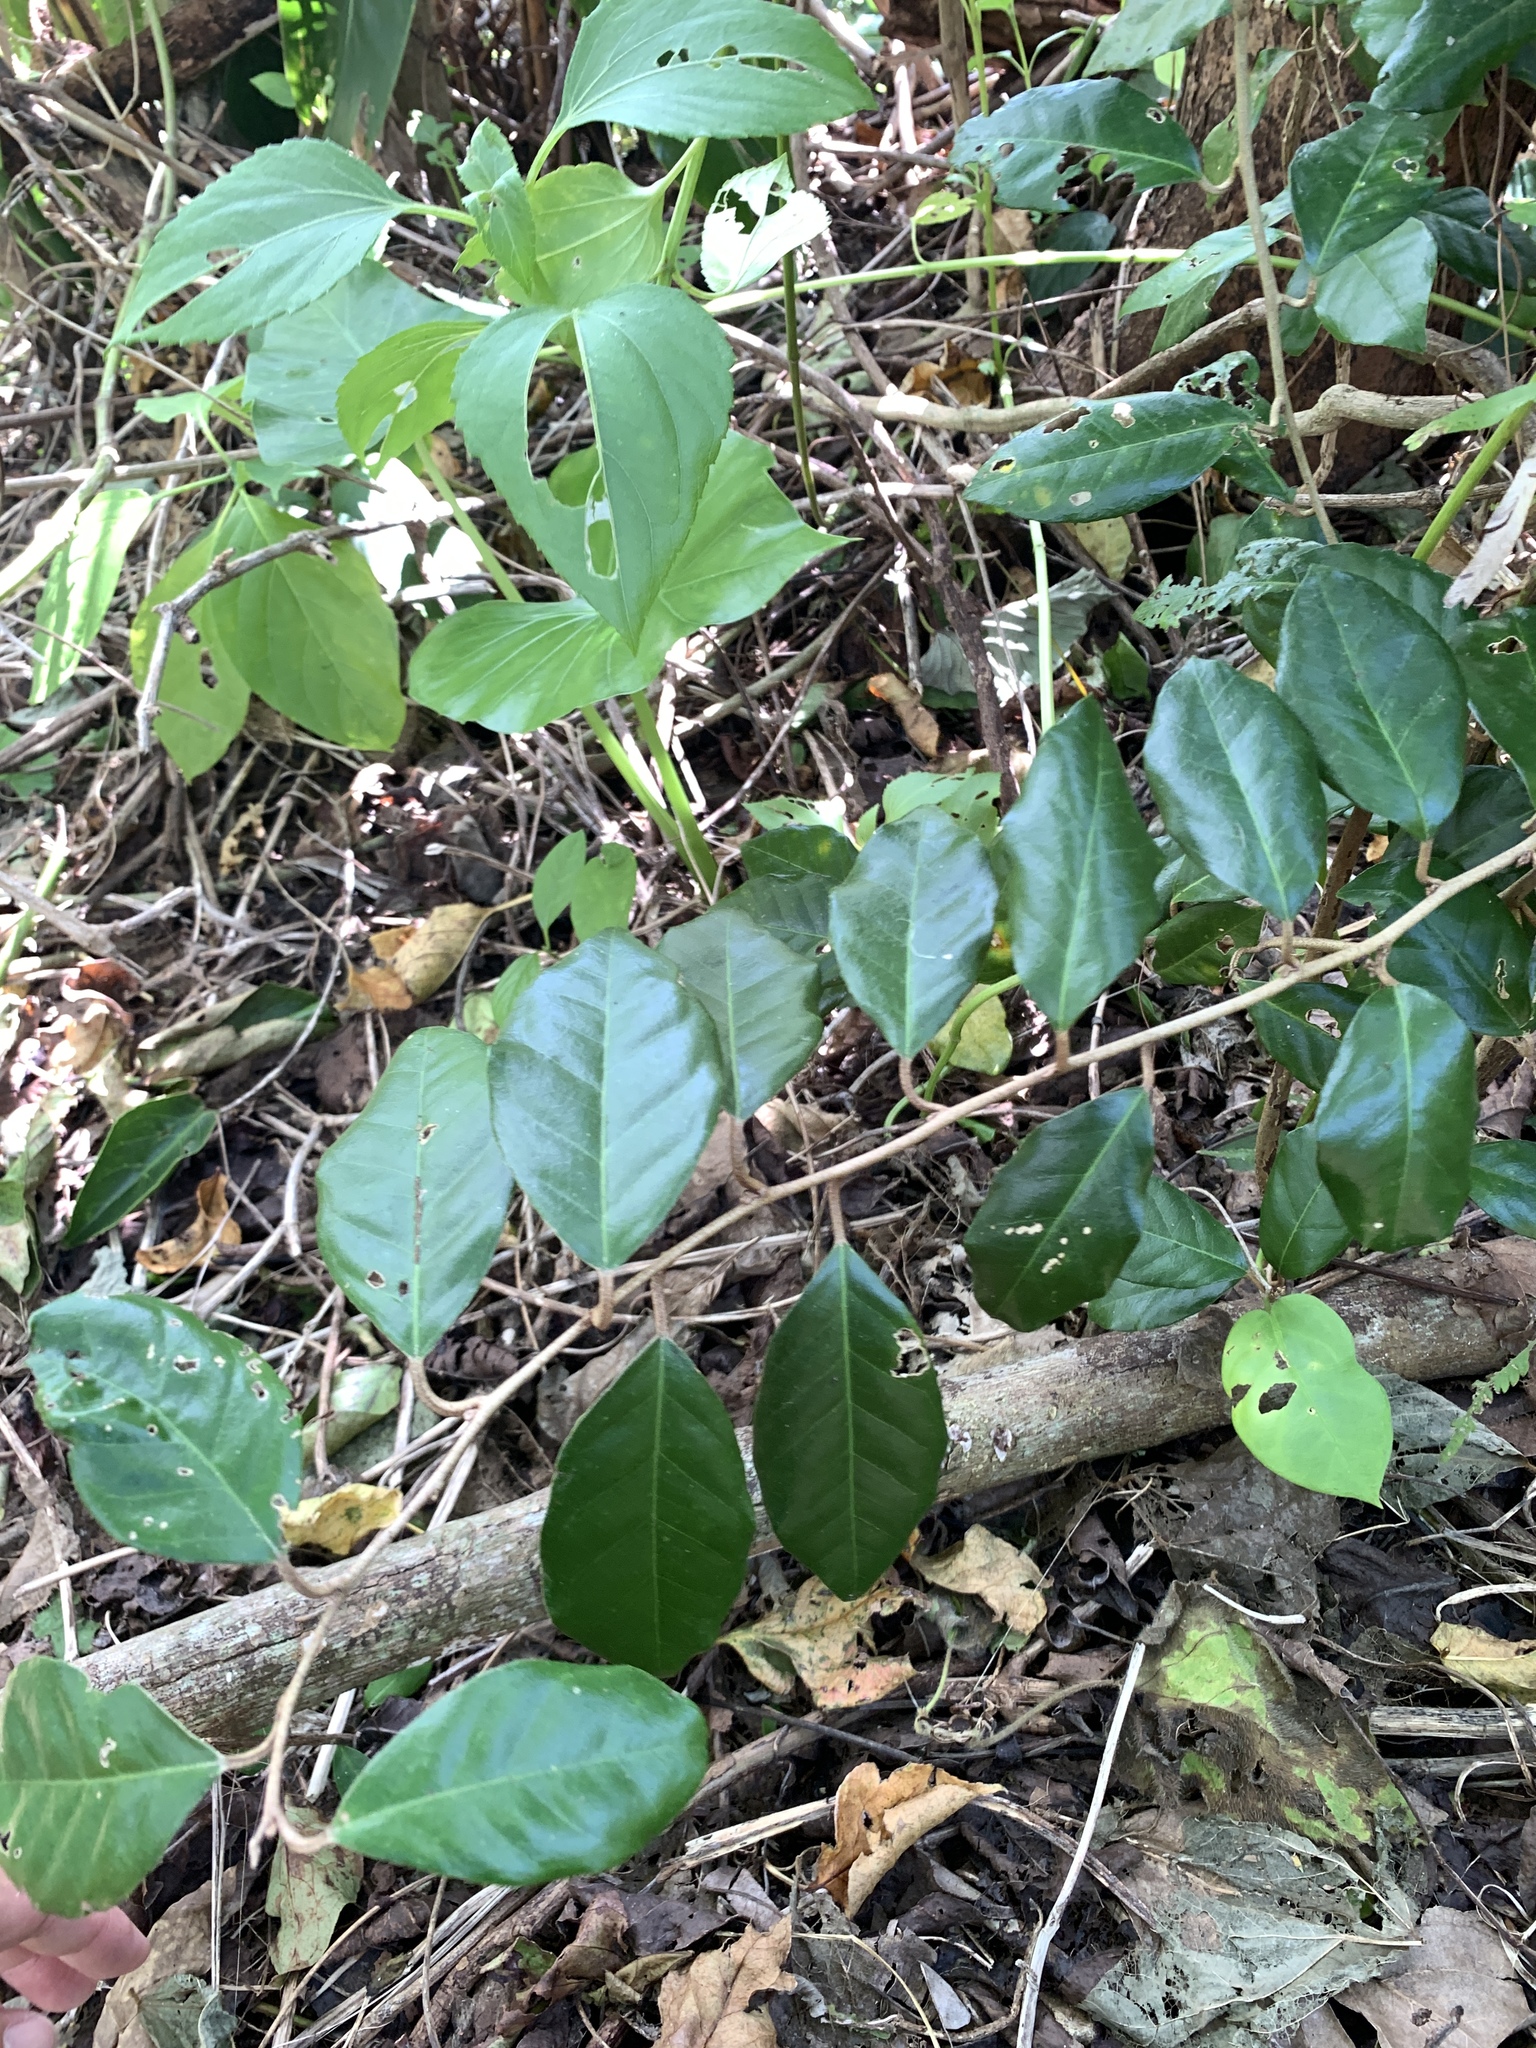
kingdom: Plantae
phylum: Tracheophyta
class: Magnoliopsida
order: Rosales
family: Elaeagnaceae
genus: Elaeagnus
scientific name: Elaeagnus formosana
